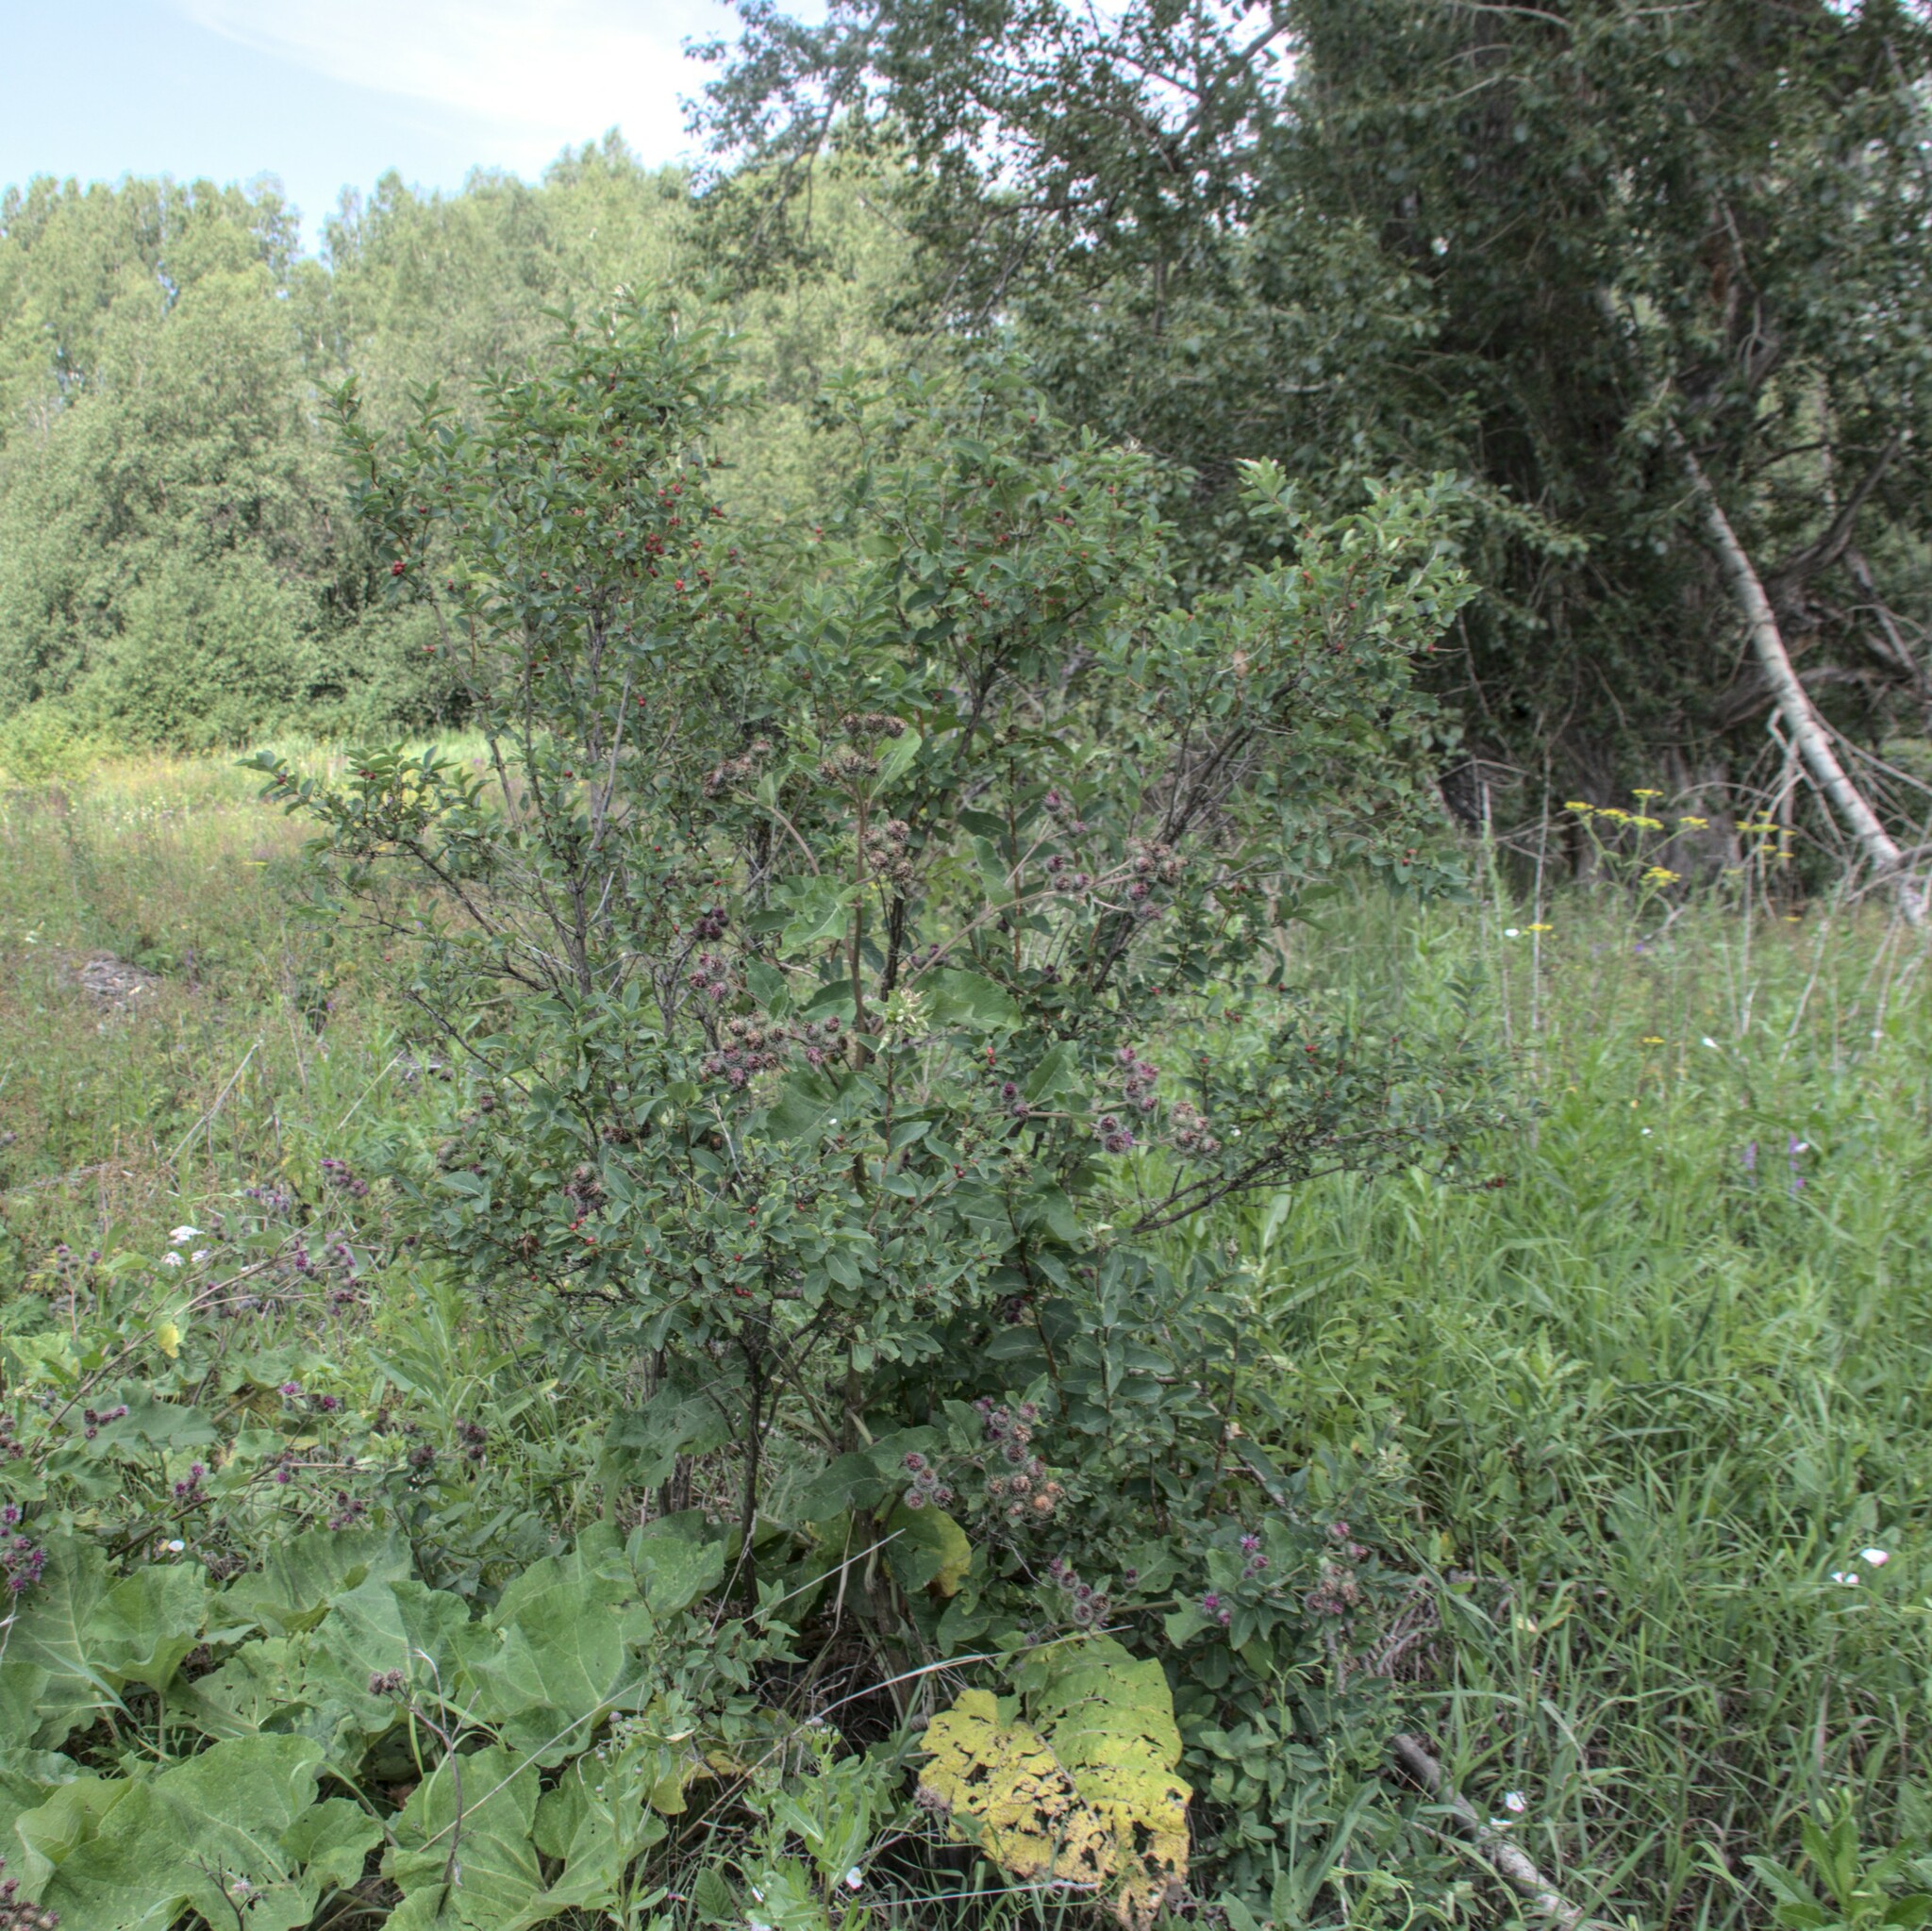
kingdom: Plantae
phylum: Tracheophyta
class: Magnoliopsida
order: Dipsacales
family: Caprifoliaceae
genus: Lonicera
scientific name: Lonicera tatarica
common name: Tatarian honeysuckle
